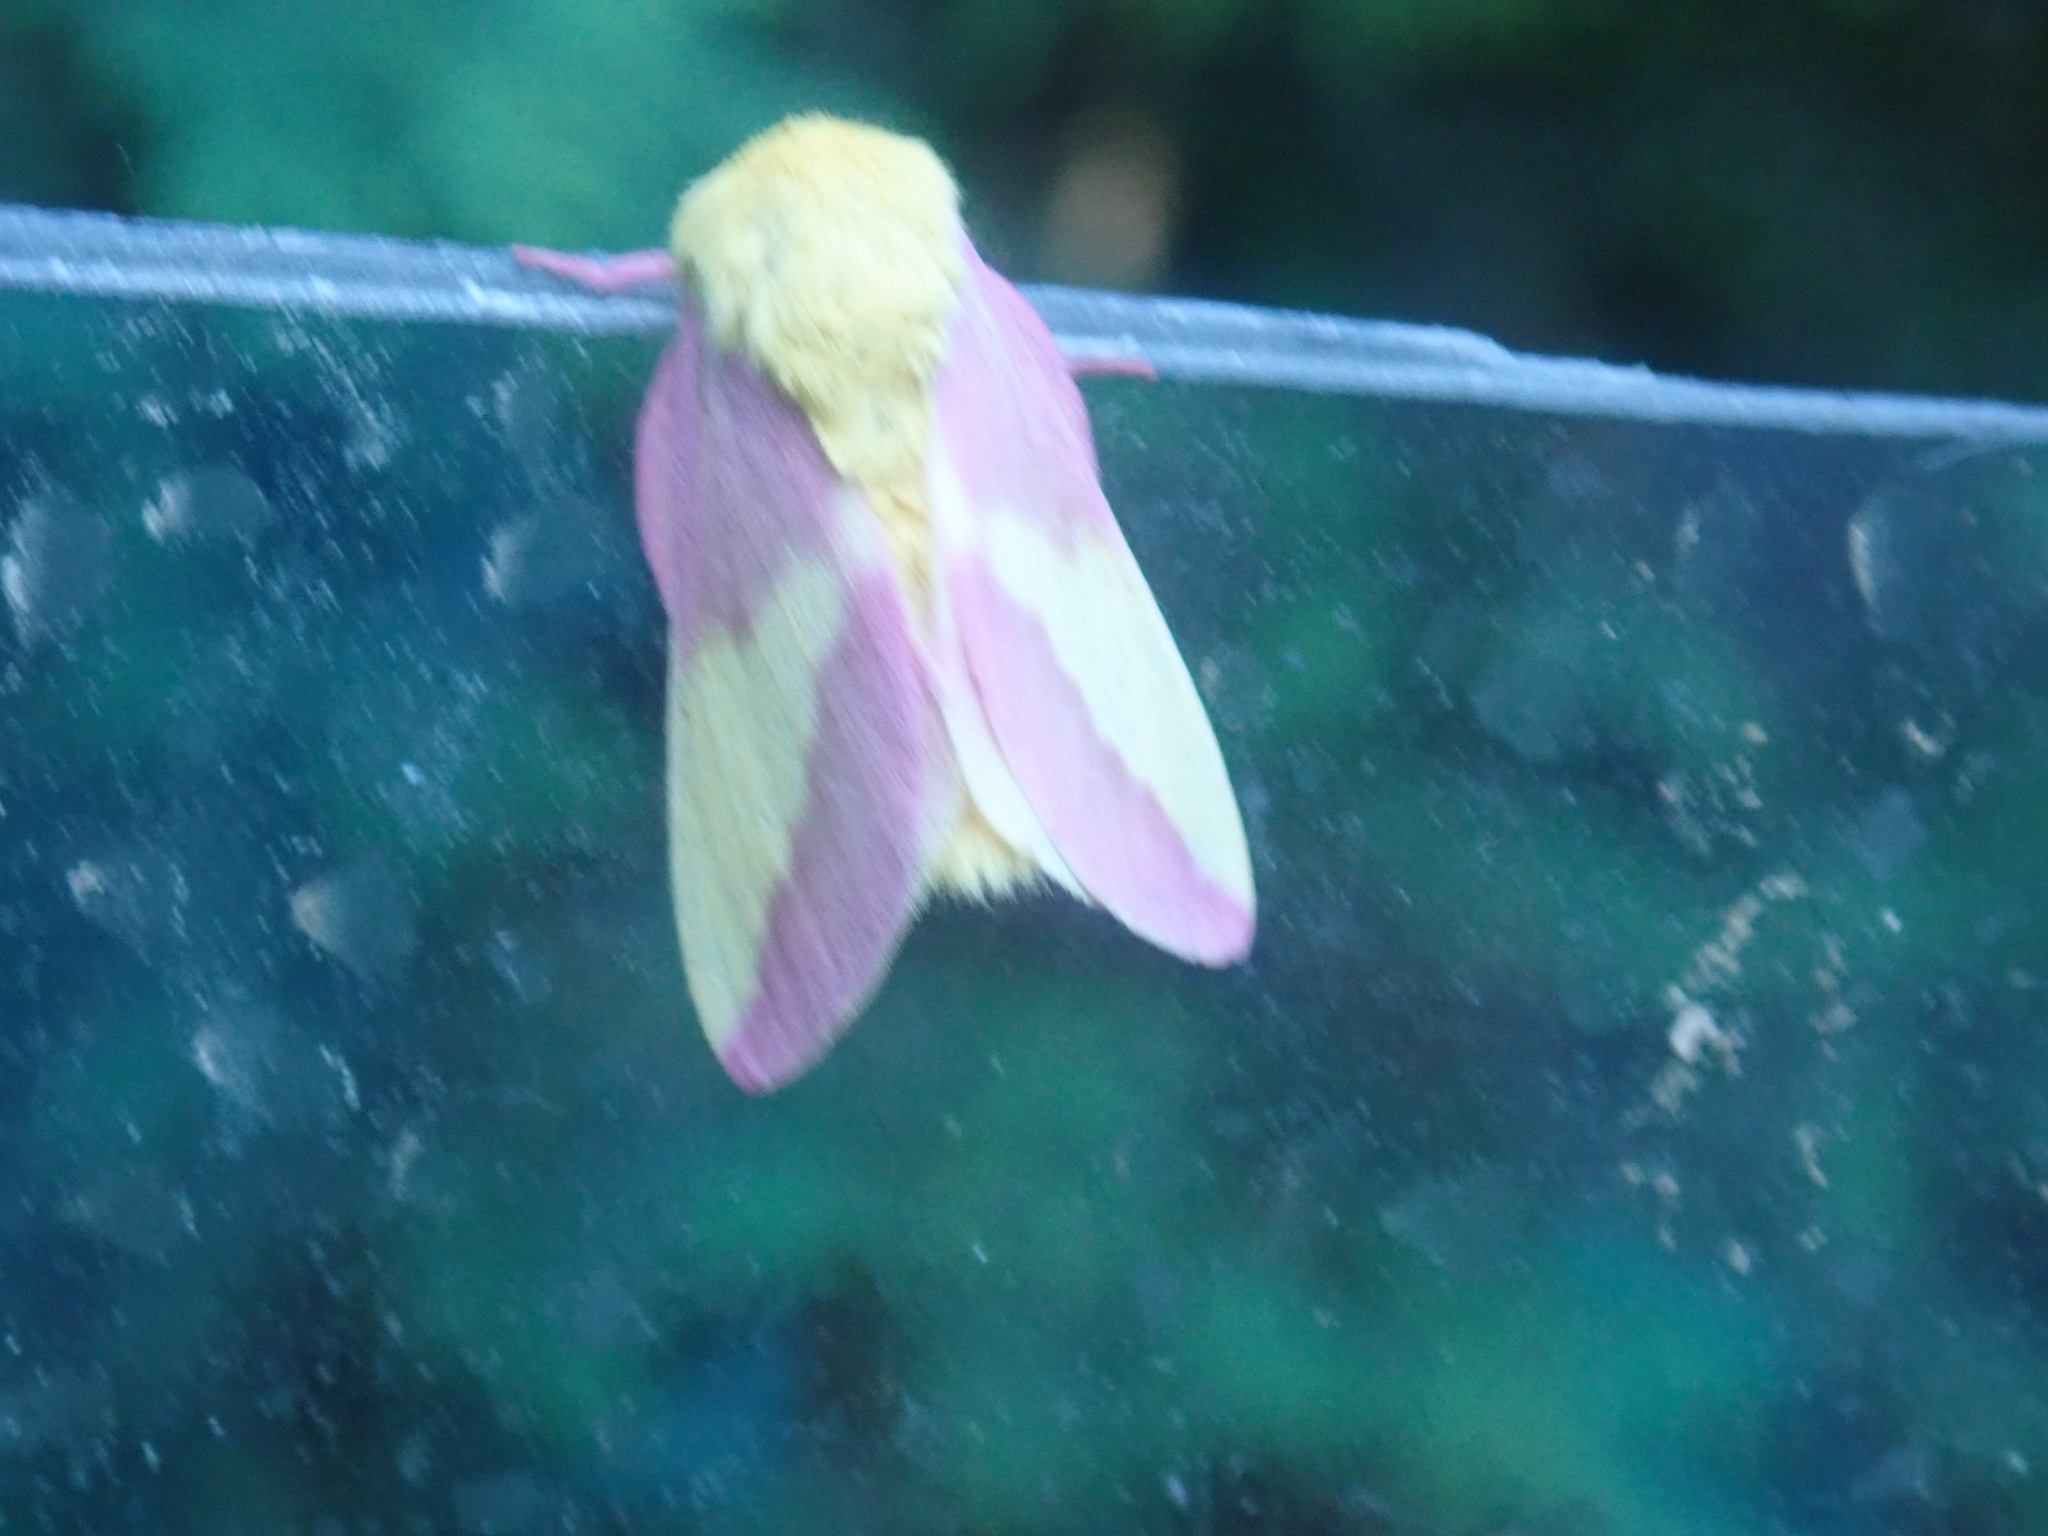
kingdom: Animalia
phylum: Arthropoda
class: Insecta
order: Lepidoptera
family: Saturniidae
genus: Dryocampa
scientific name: Dryocampa rubicunda
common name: Rosy maple moth
